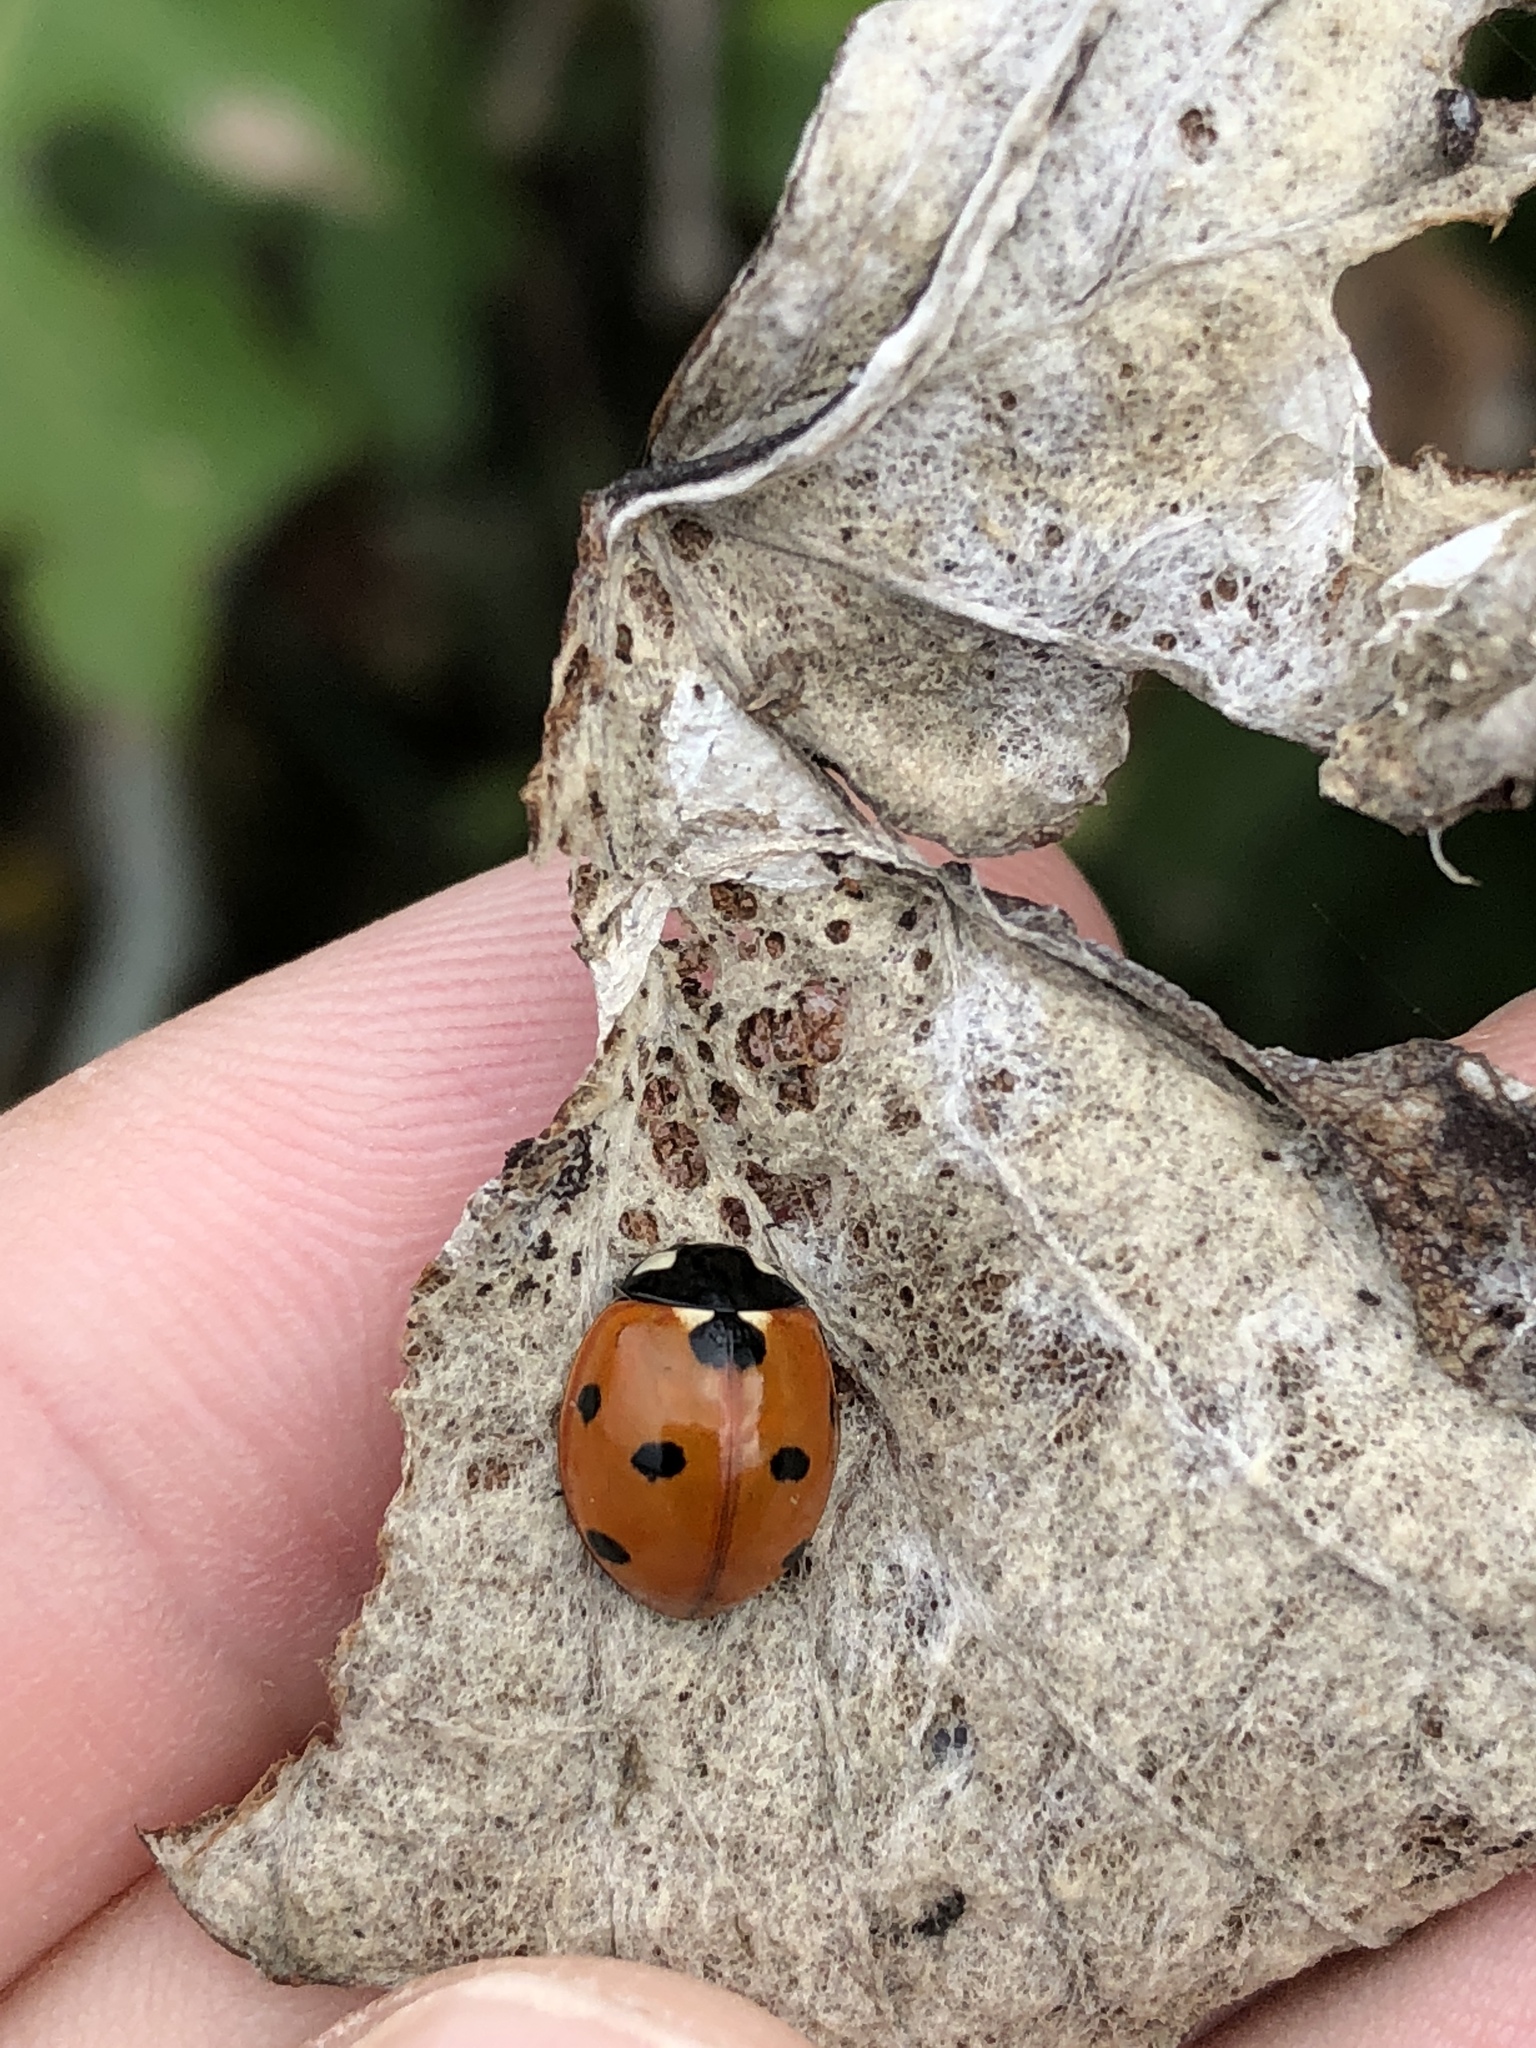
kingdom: Animalia
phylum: Arthropoda
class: Insecta
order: Coleoptera
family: Coccinellidae
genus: Coccinella
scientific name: Coccinella septempunctata
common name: Sevenspotted lady beetle
